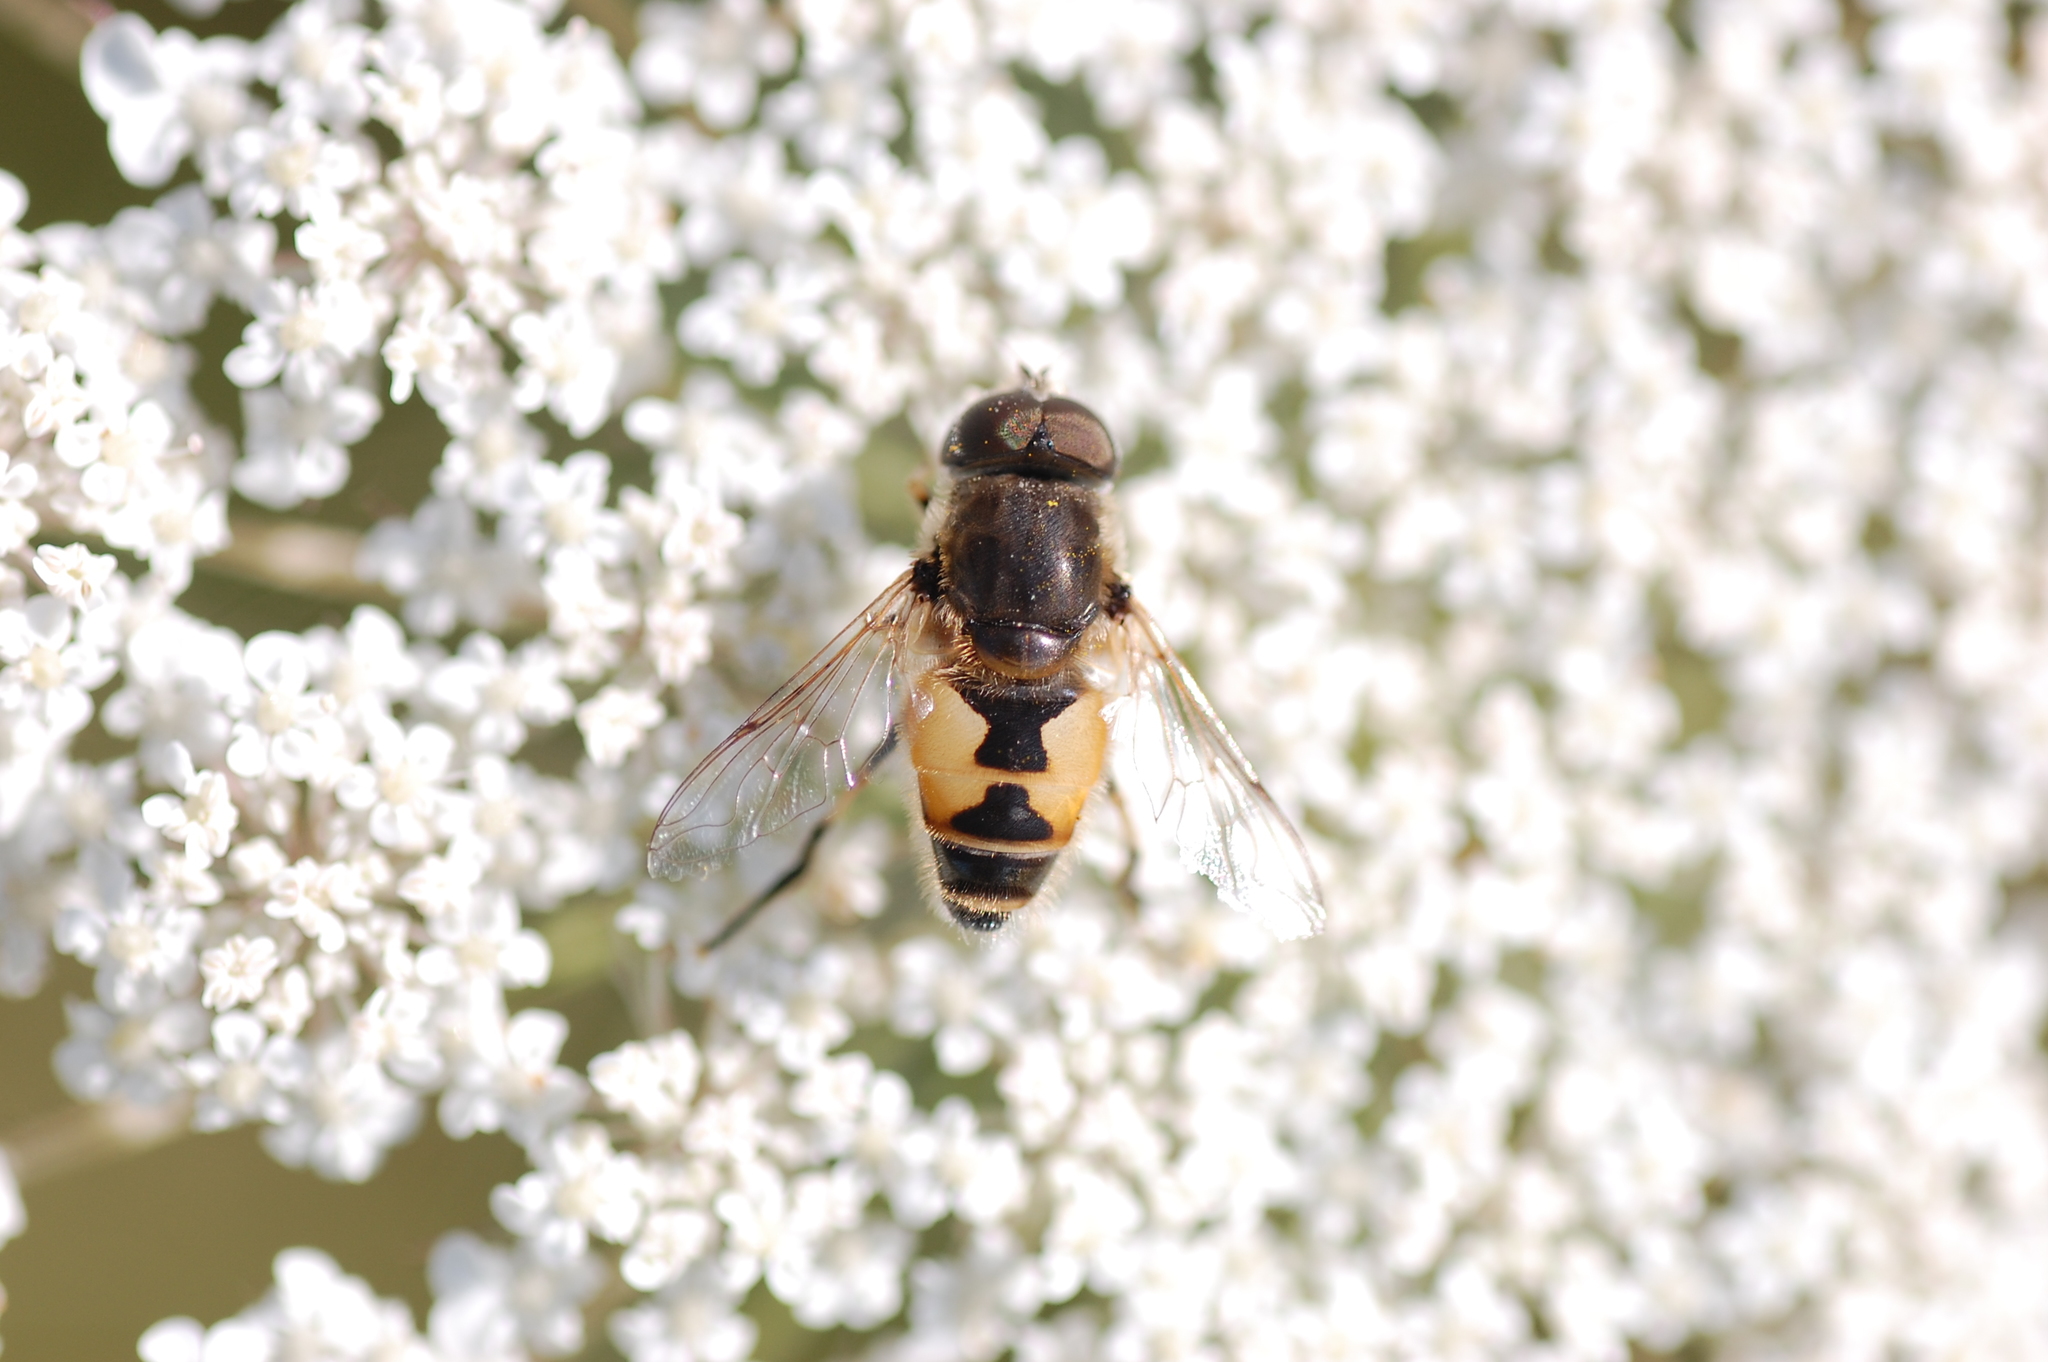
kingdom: Animalia
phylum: Arthropoda
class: Insecta
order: Diptera
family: Syrphidae
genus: Eristalis
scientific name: Eristalis arbustorum
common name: Hover fly
